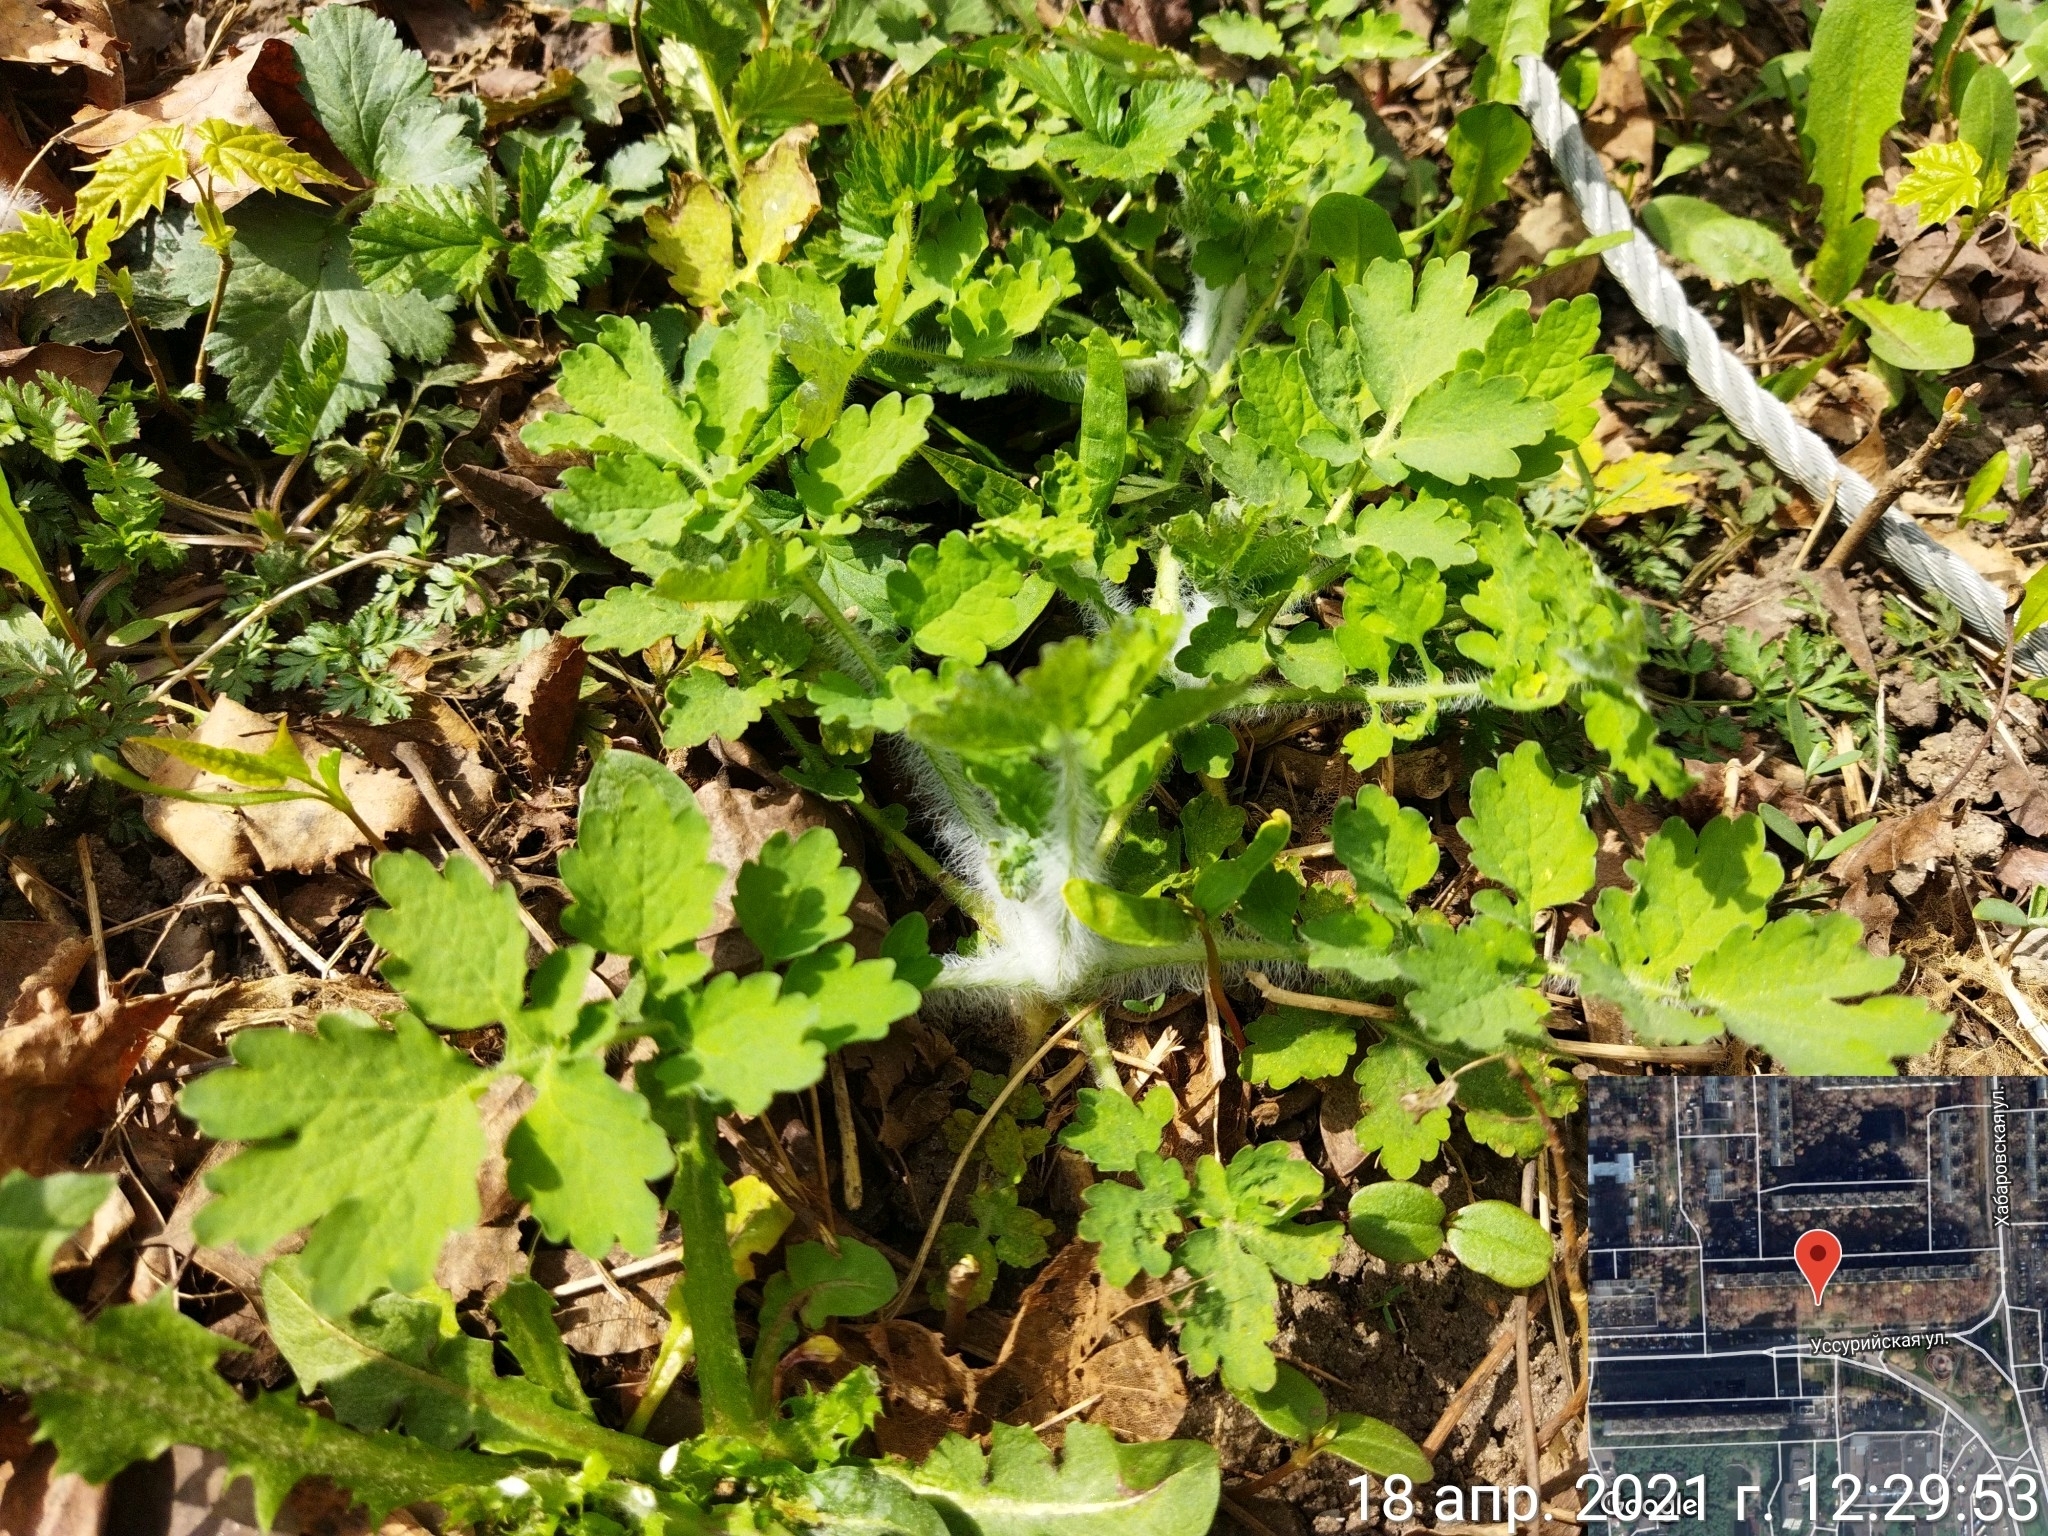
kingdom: Plantae
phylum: Tracheophyta
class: Magnoliopsida
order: Ranunculales
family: Papaveraceae
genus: Chelidonium
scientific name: Chelidonium majus
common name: Greater celandine
